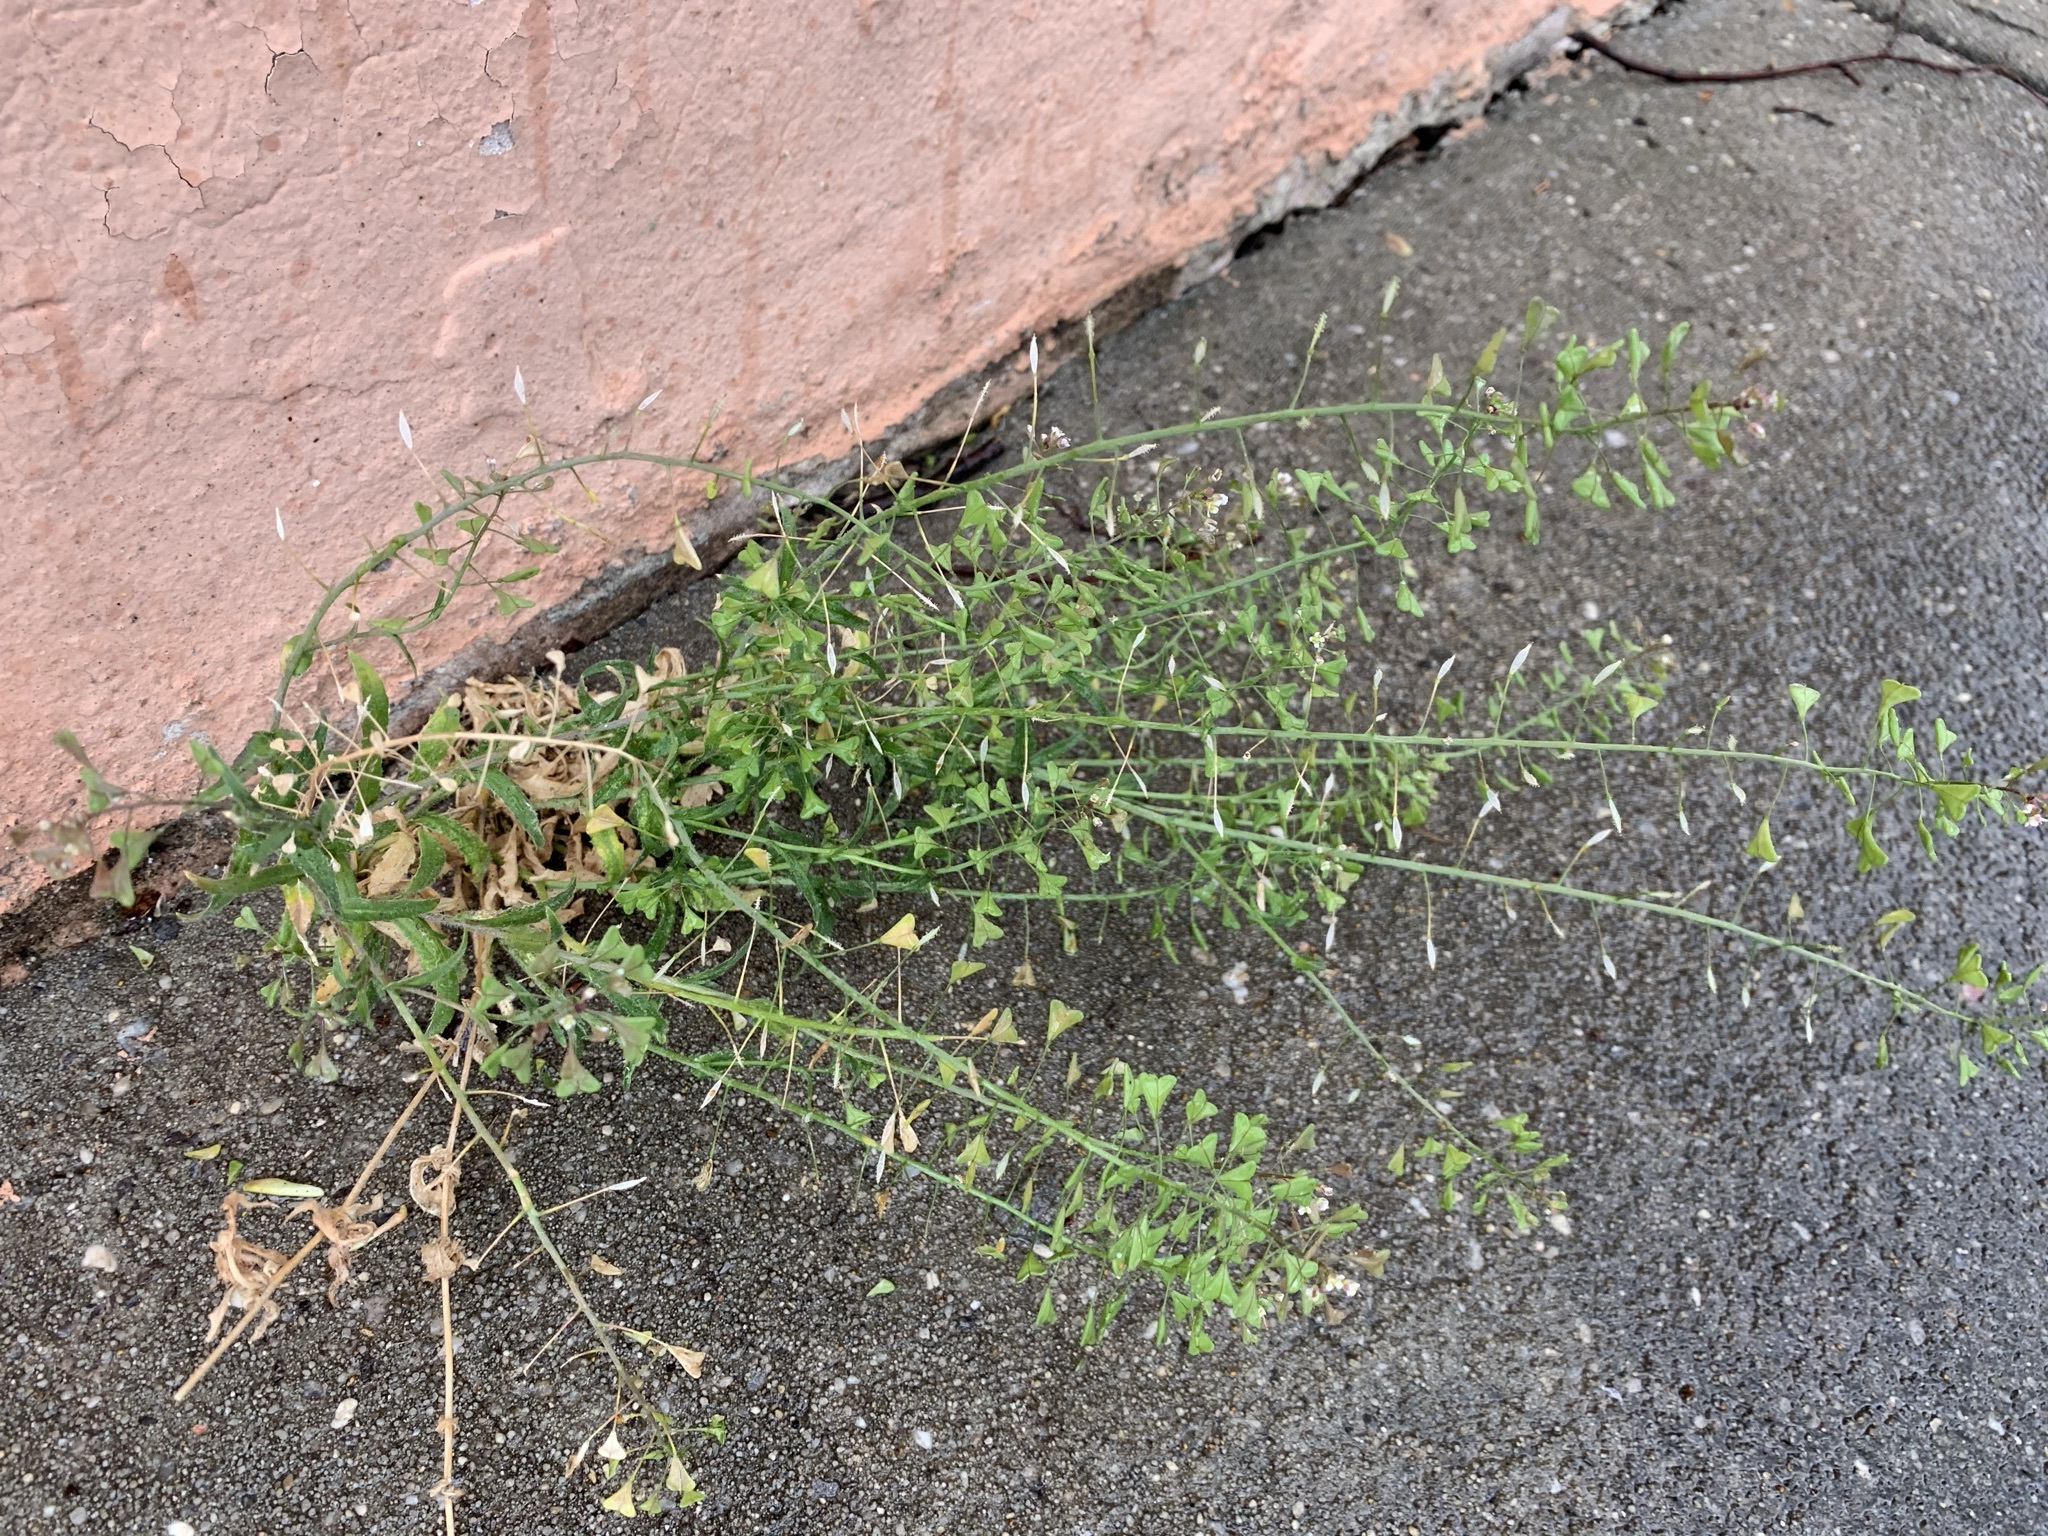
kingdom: Plantae
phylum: Tracheophyta
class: Magnoliopsida
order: Brassicales
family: Brassicaceae
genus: Capsella
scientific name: Capsella bursa-pastoris
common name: Shepherd's purse
